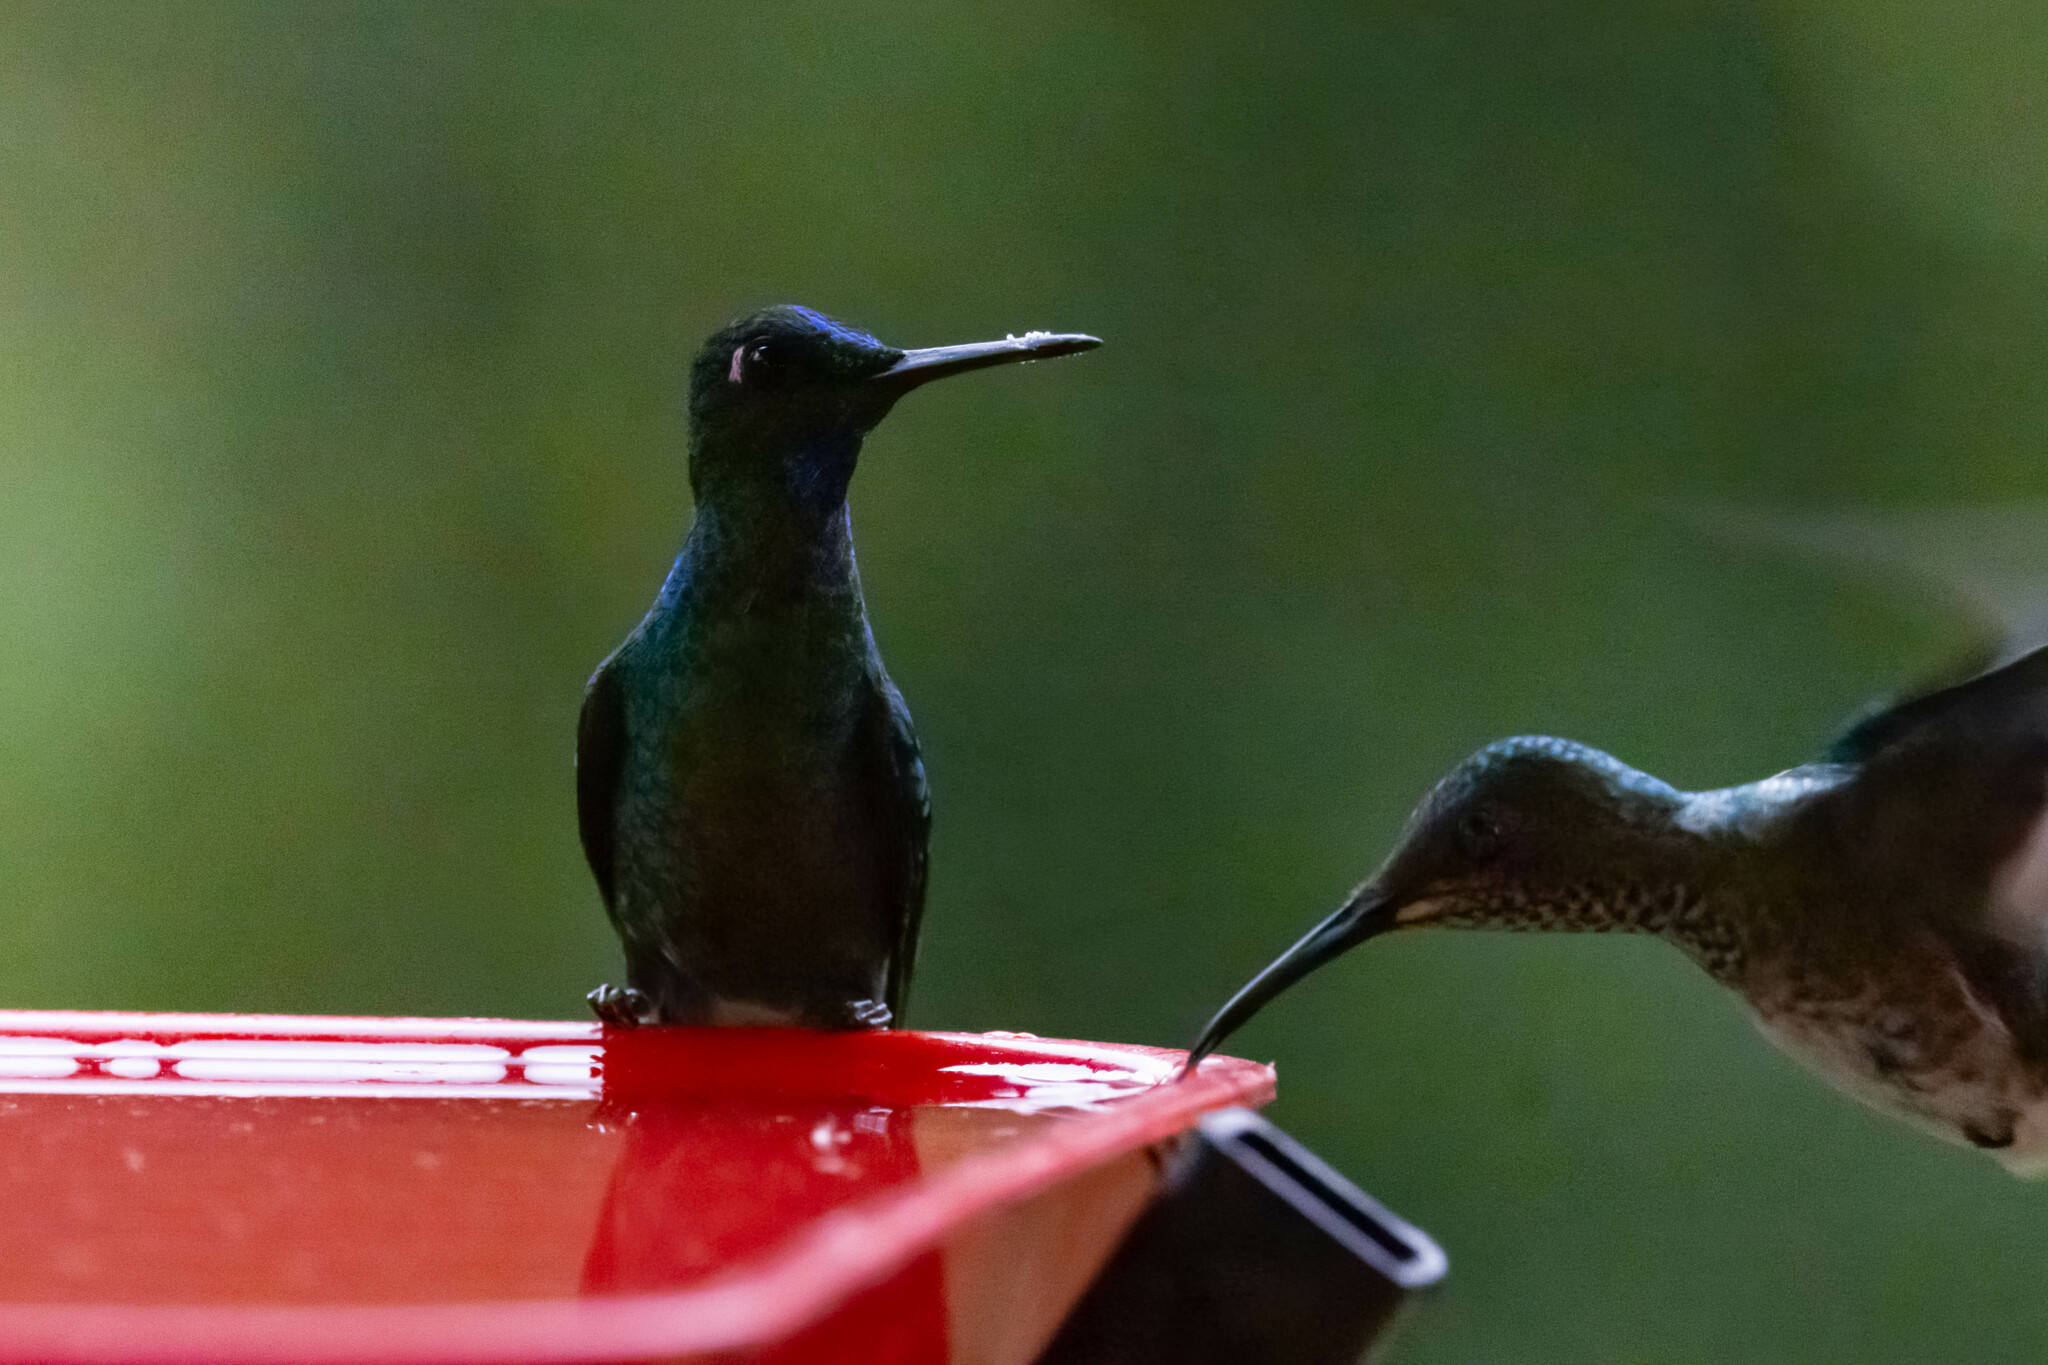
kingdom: Animalia
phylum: Chordata
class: Aves
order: Apodiformes
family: Trochilidae
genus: Heliodoxa
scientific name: Heliodoxa jacula
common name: Green-crowned brilliant
